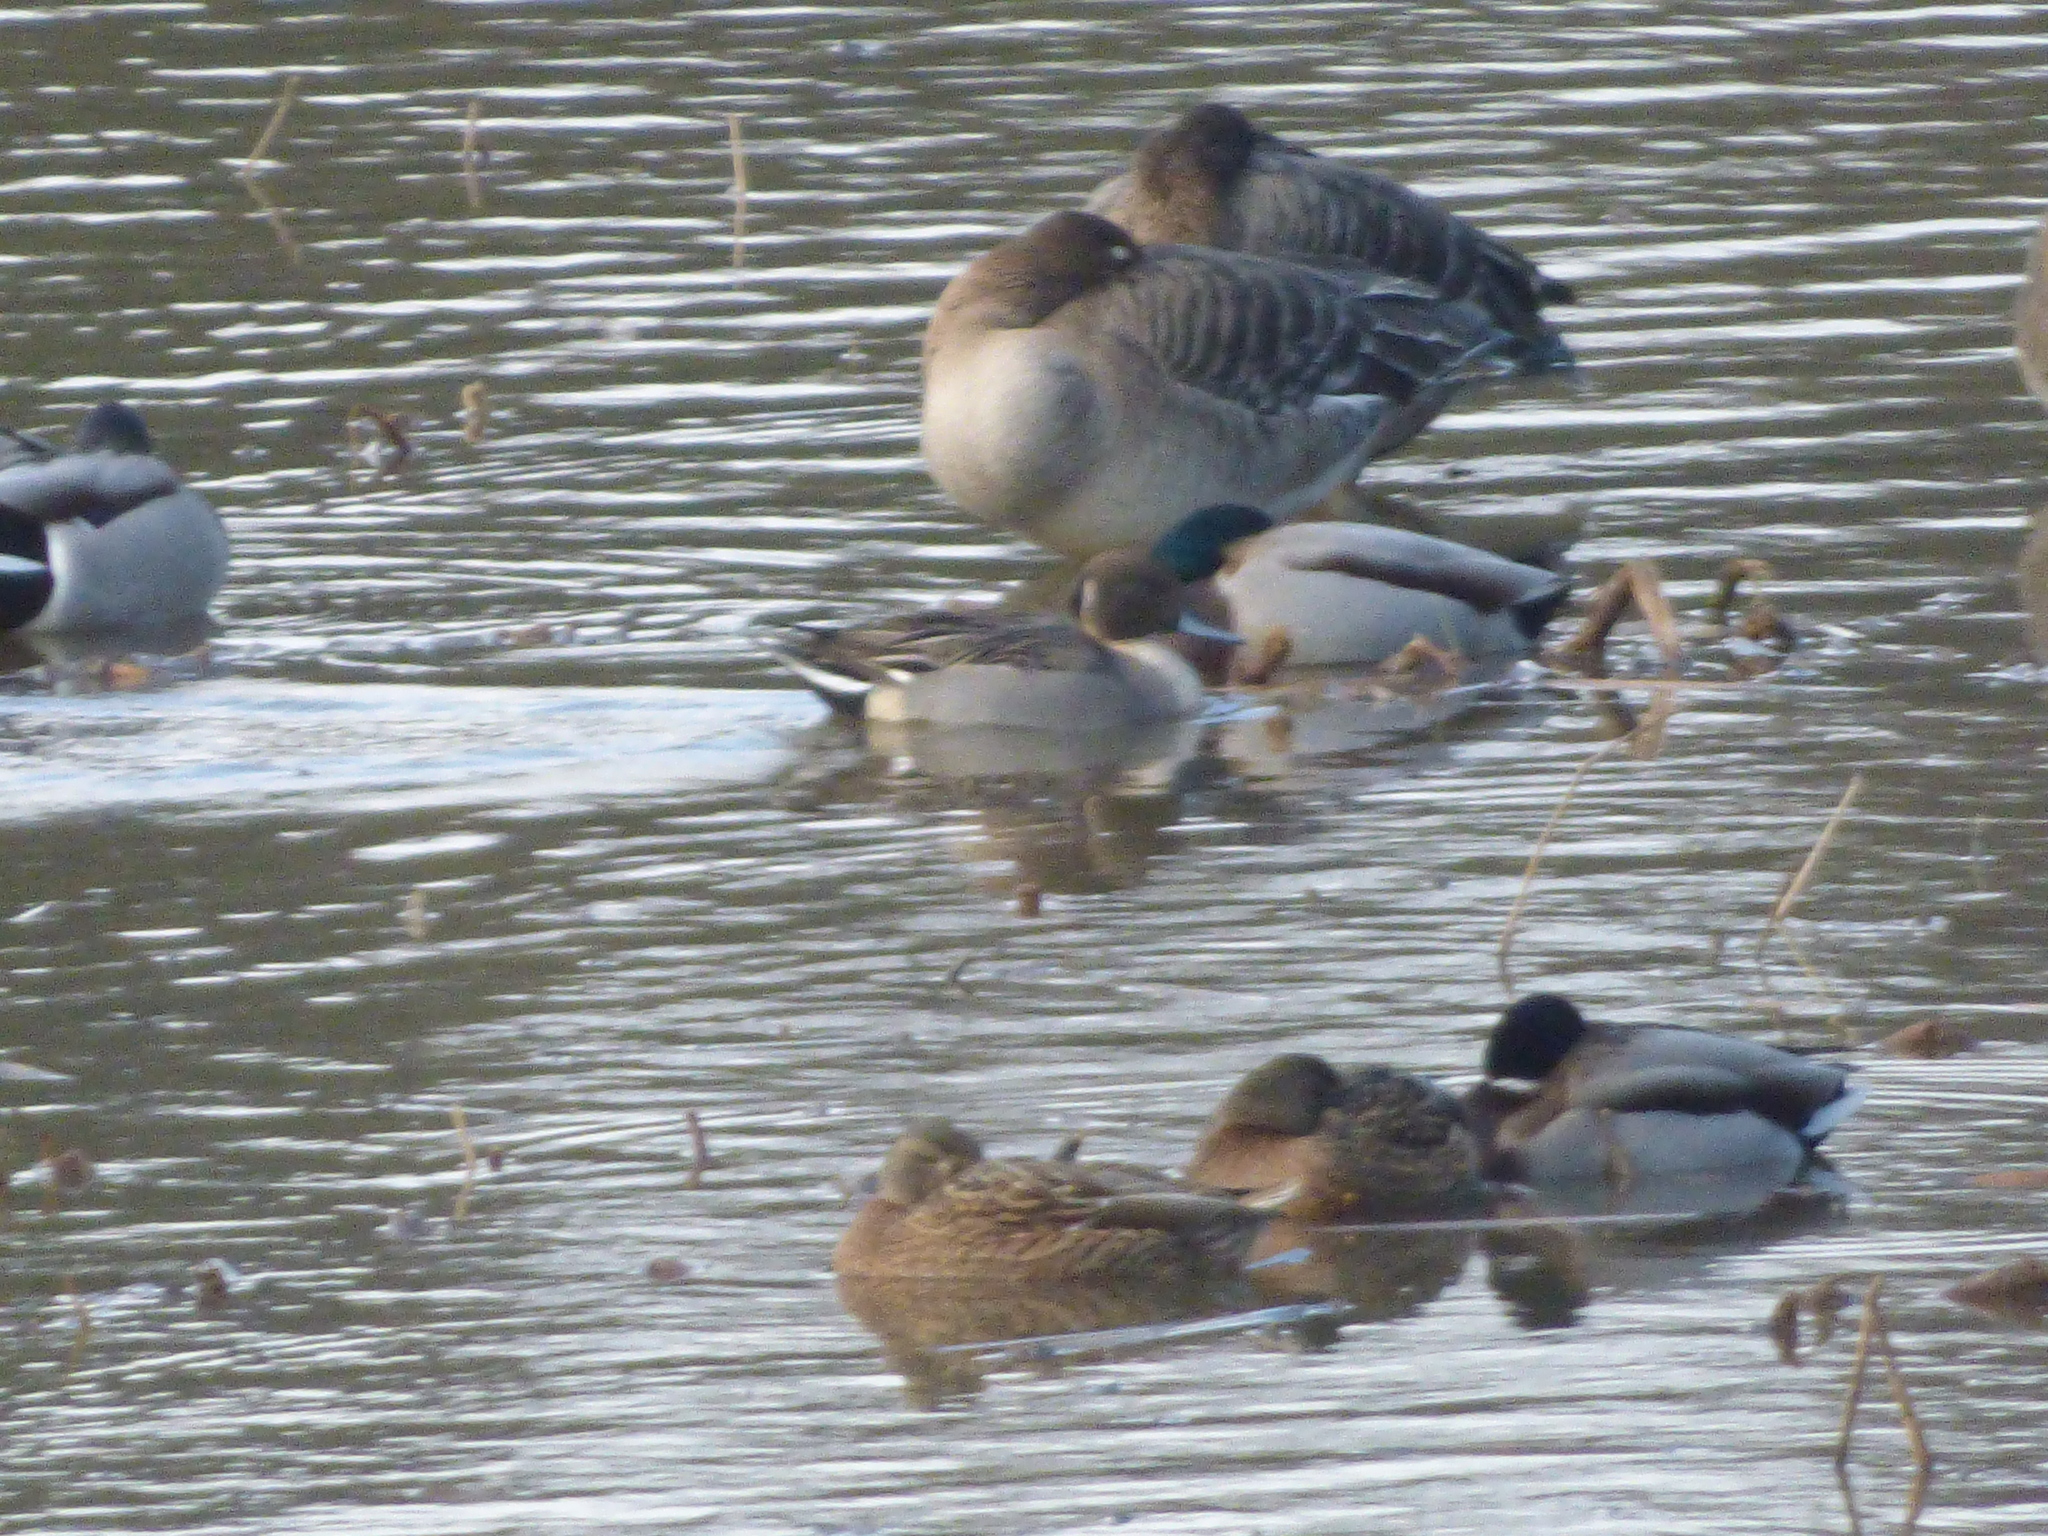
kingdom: Animalia
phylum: Chordata
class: Aves
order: Anseriformes
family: Anatidae
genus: Anas
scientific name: Anas acuta
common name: Northern pintail
